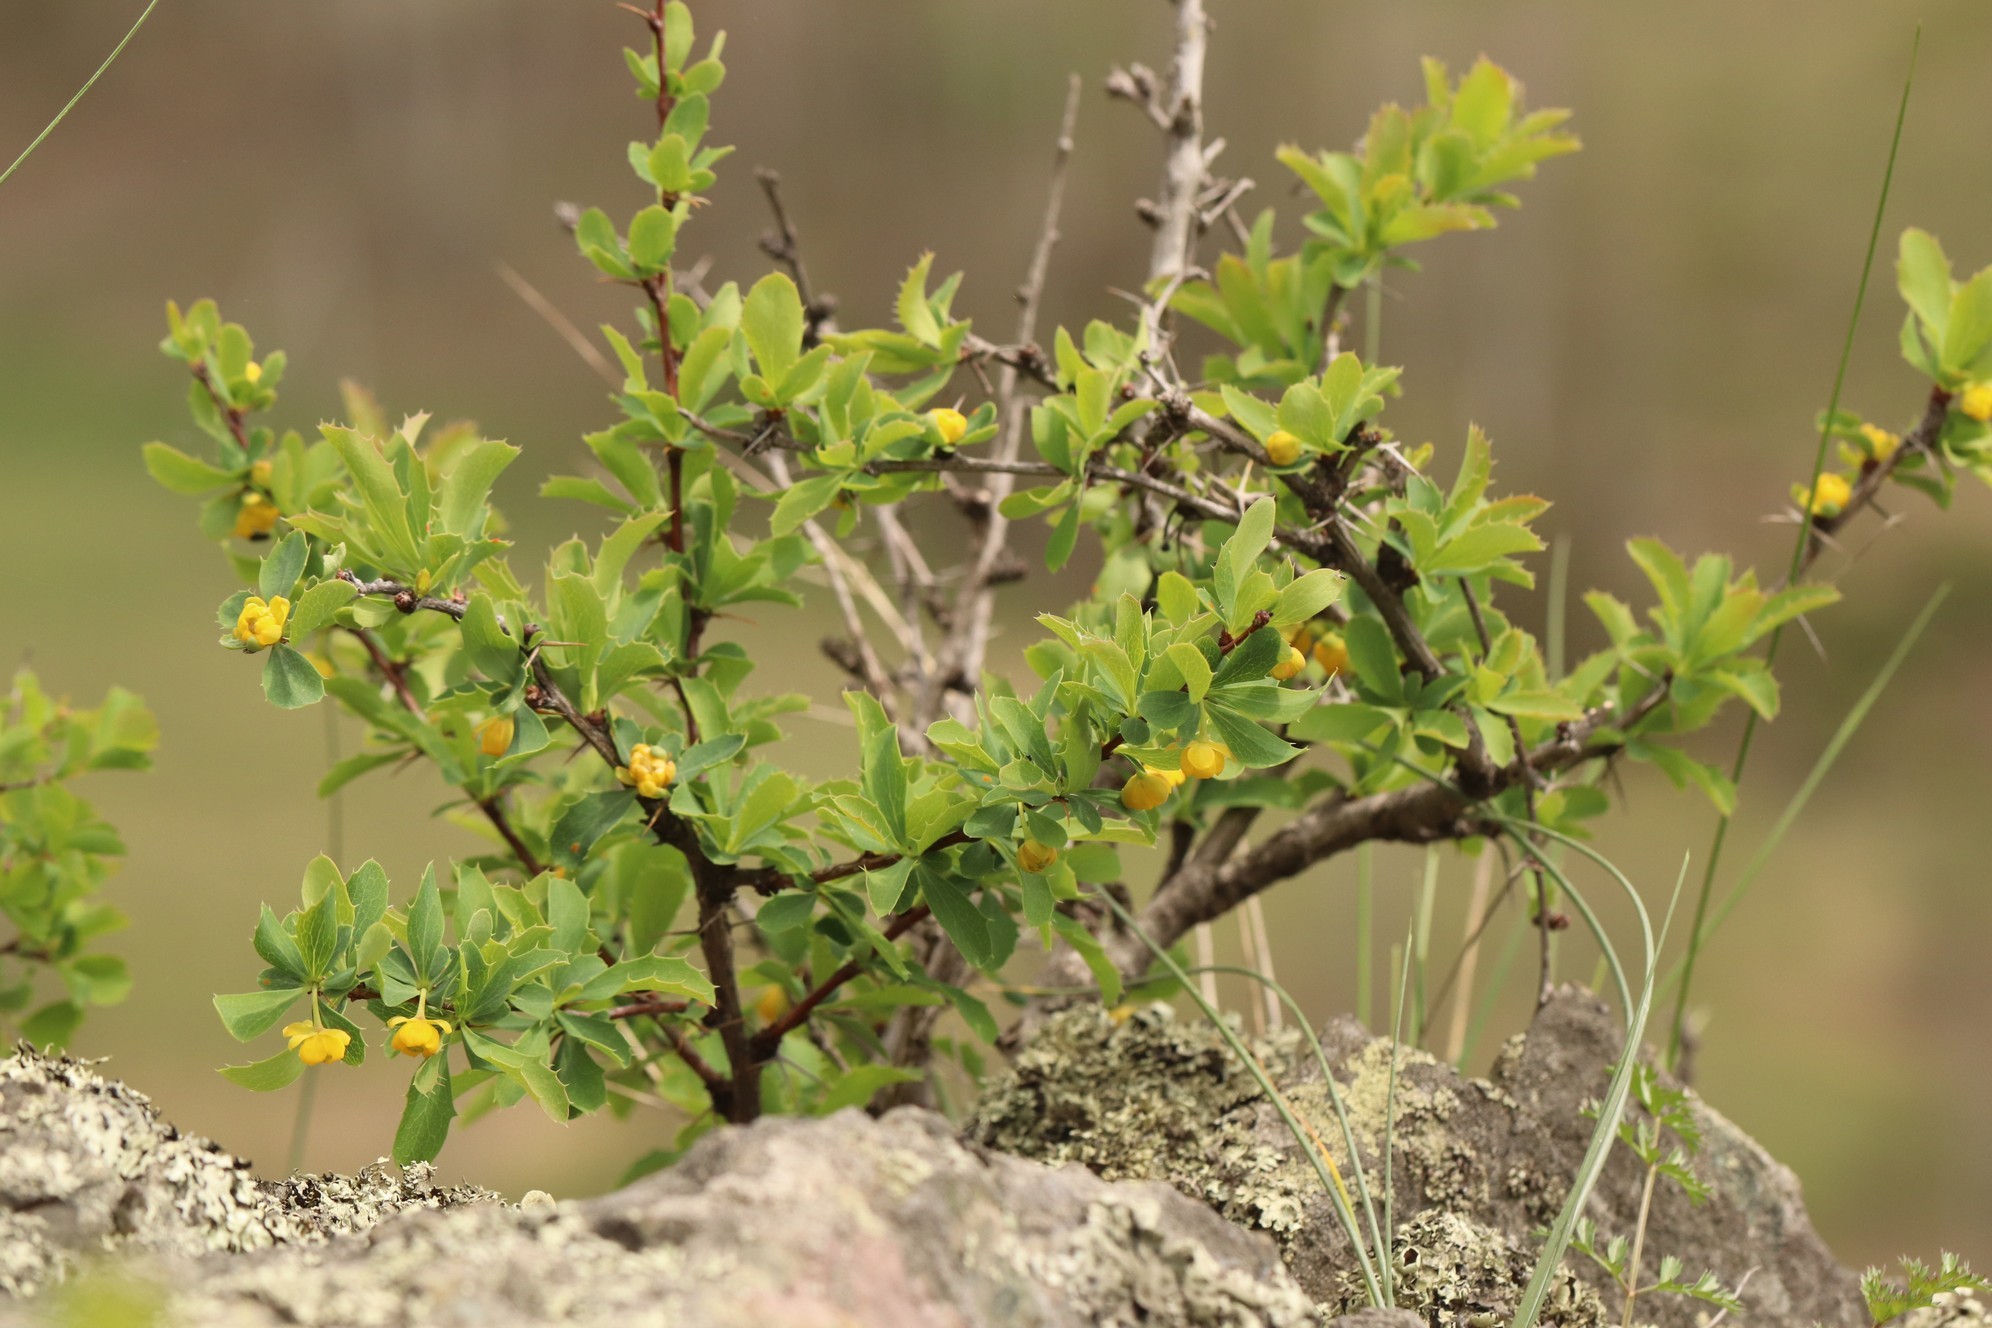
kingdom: Plantae
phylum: Tracheophyta
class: Magnoliopsida
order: Ranunculales
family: Berberidaceae
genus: Berberis
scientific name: Berberis sibirica
